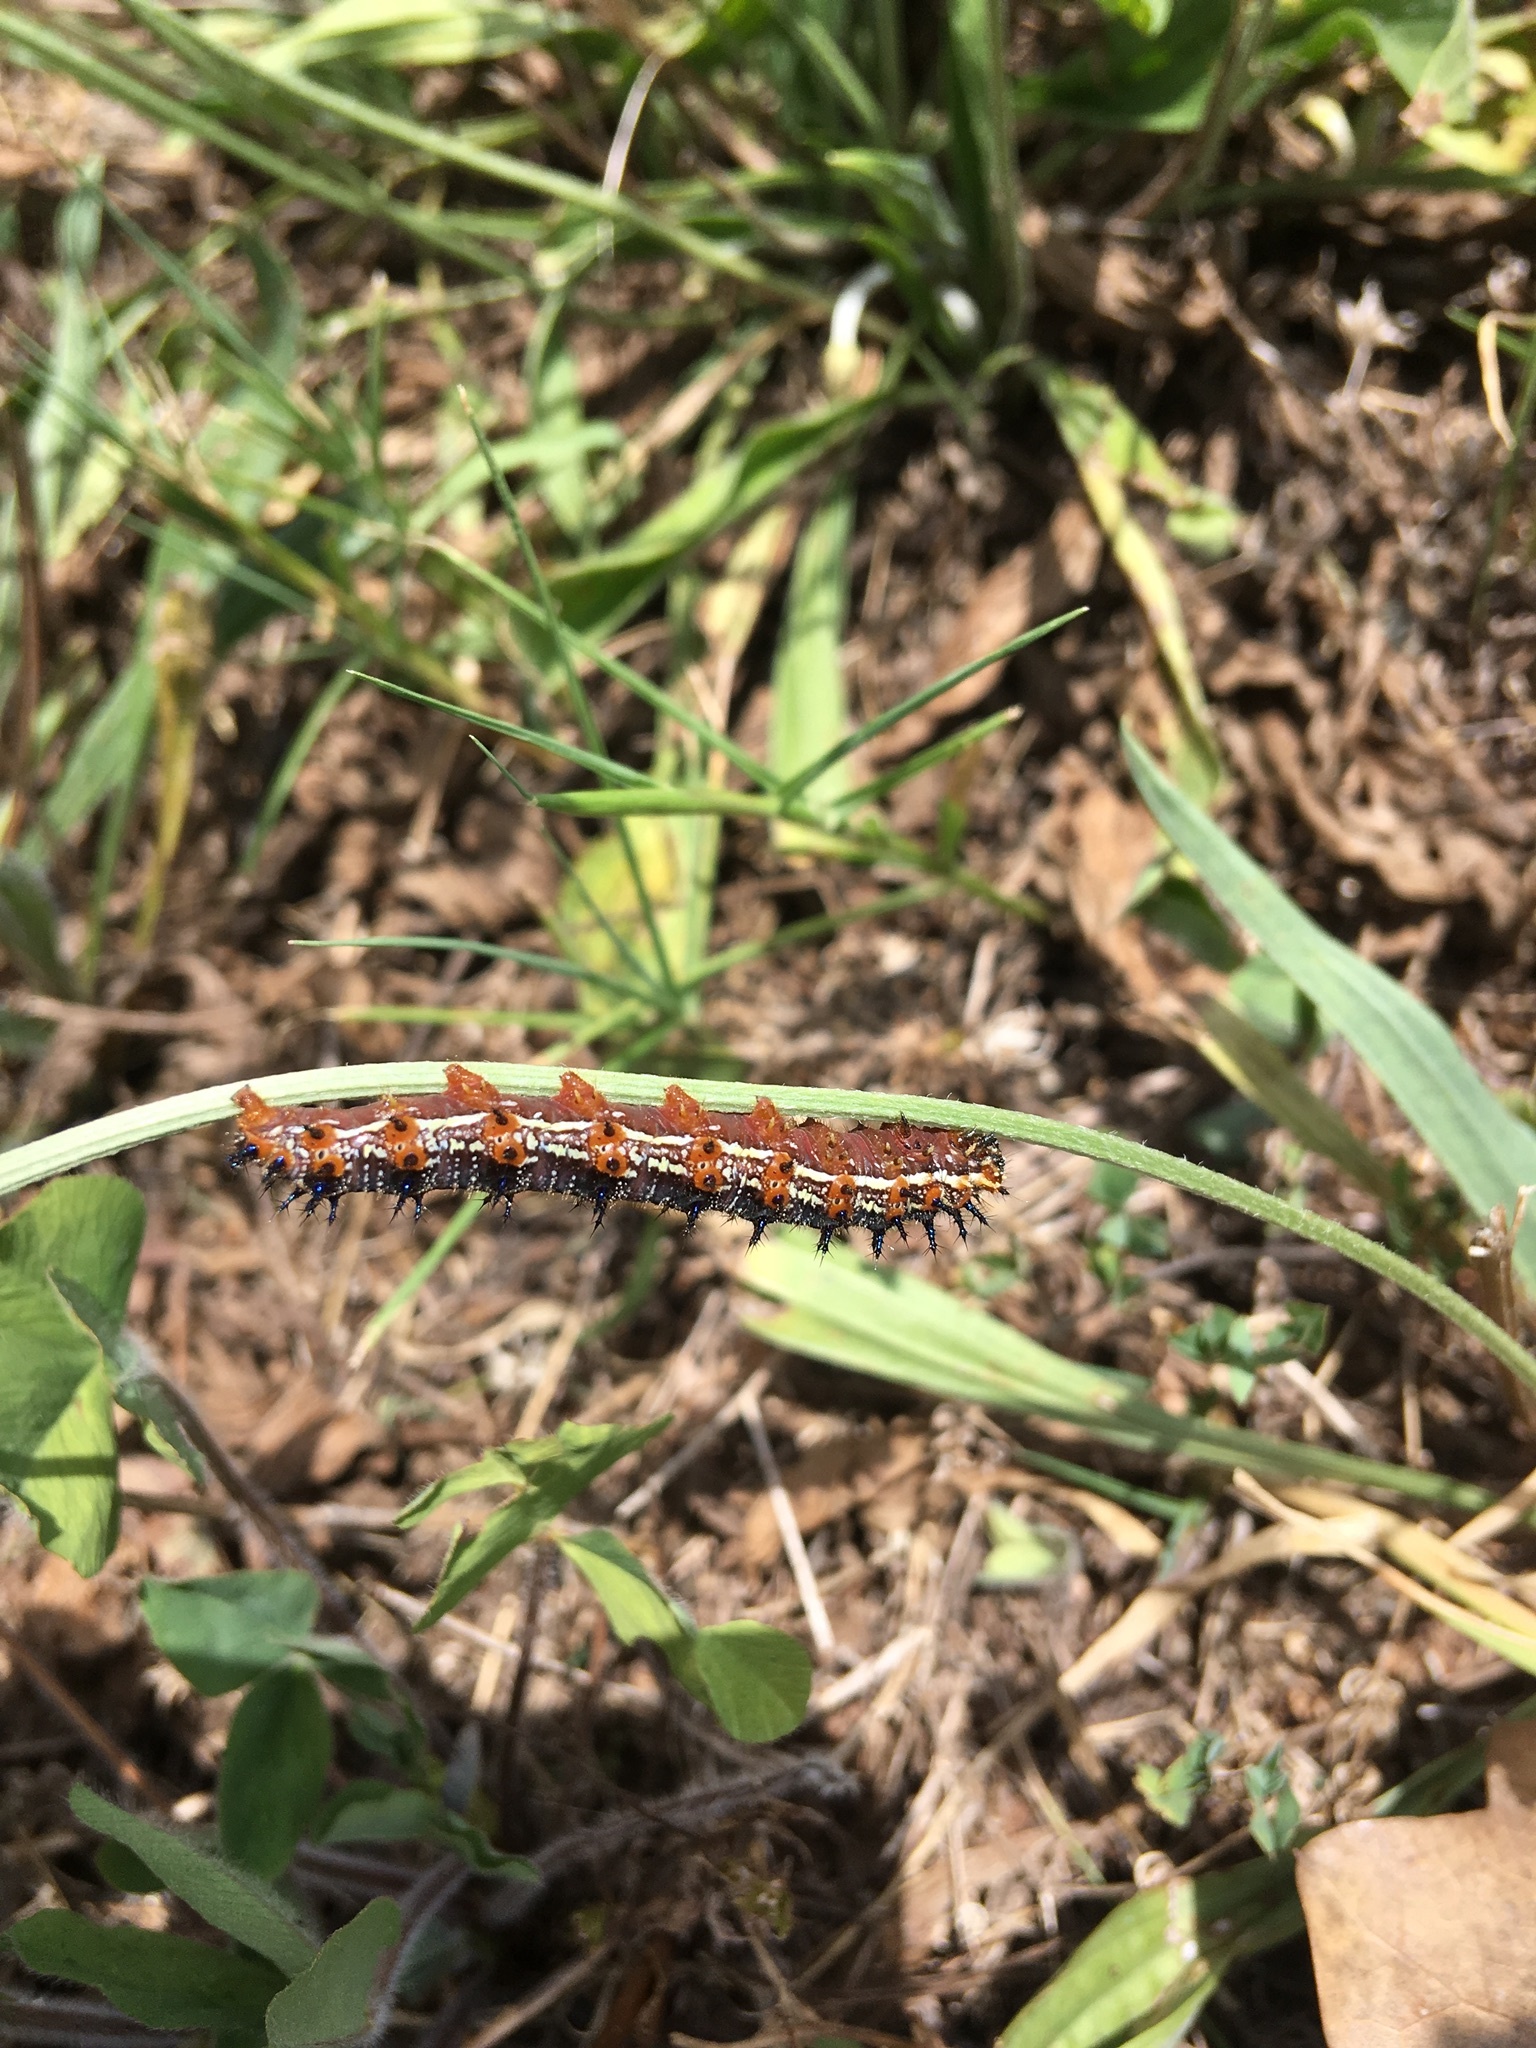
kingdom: Animalia
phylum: Arthropoda
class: Insecta
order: Lepidoptera
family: Nymphalidae
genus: Junonia
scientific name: Junonia coenia
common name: Common buckeye
